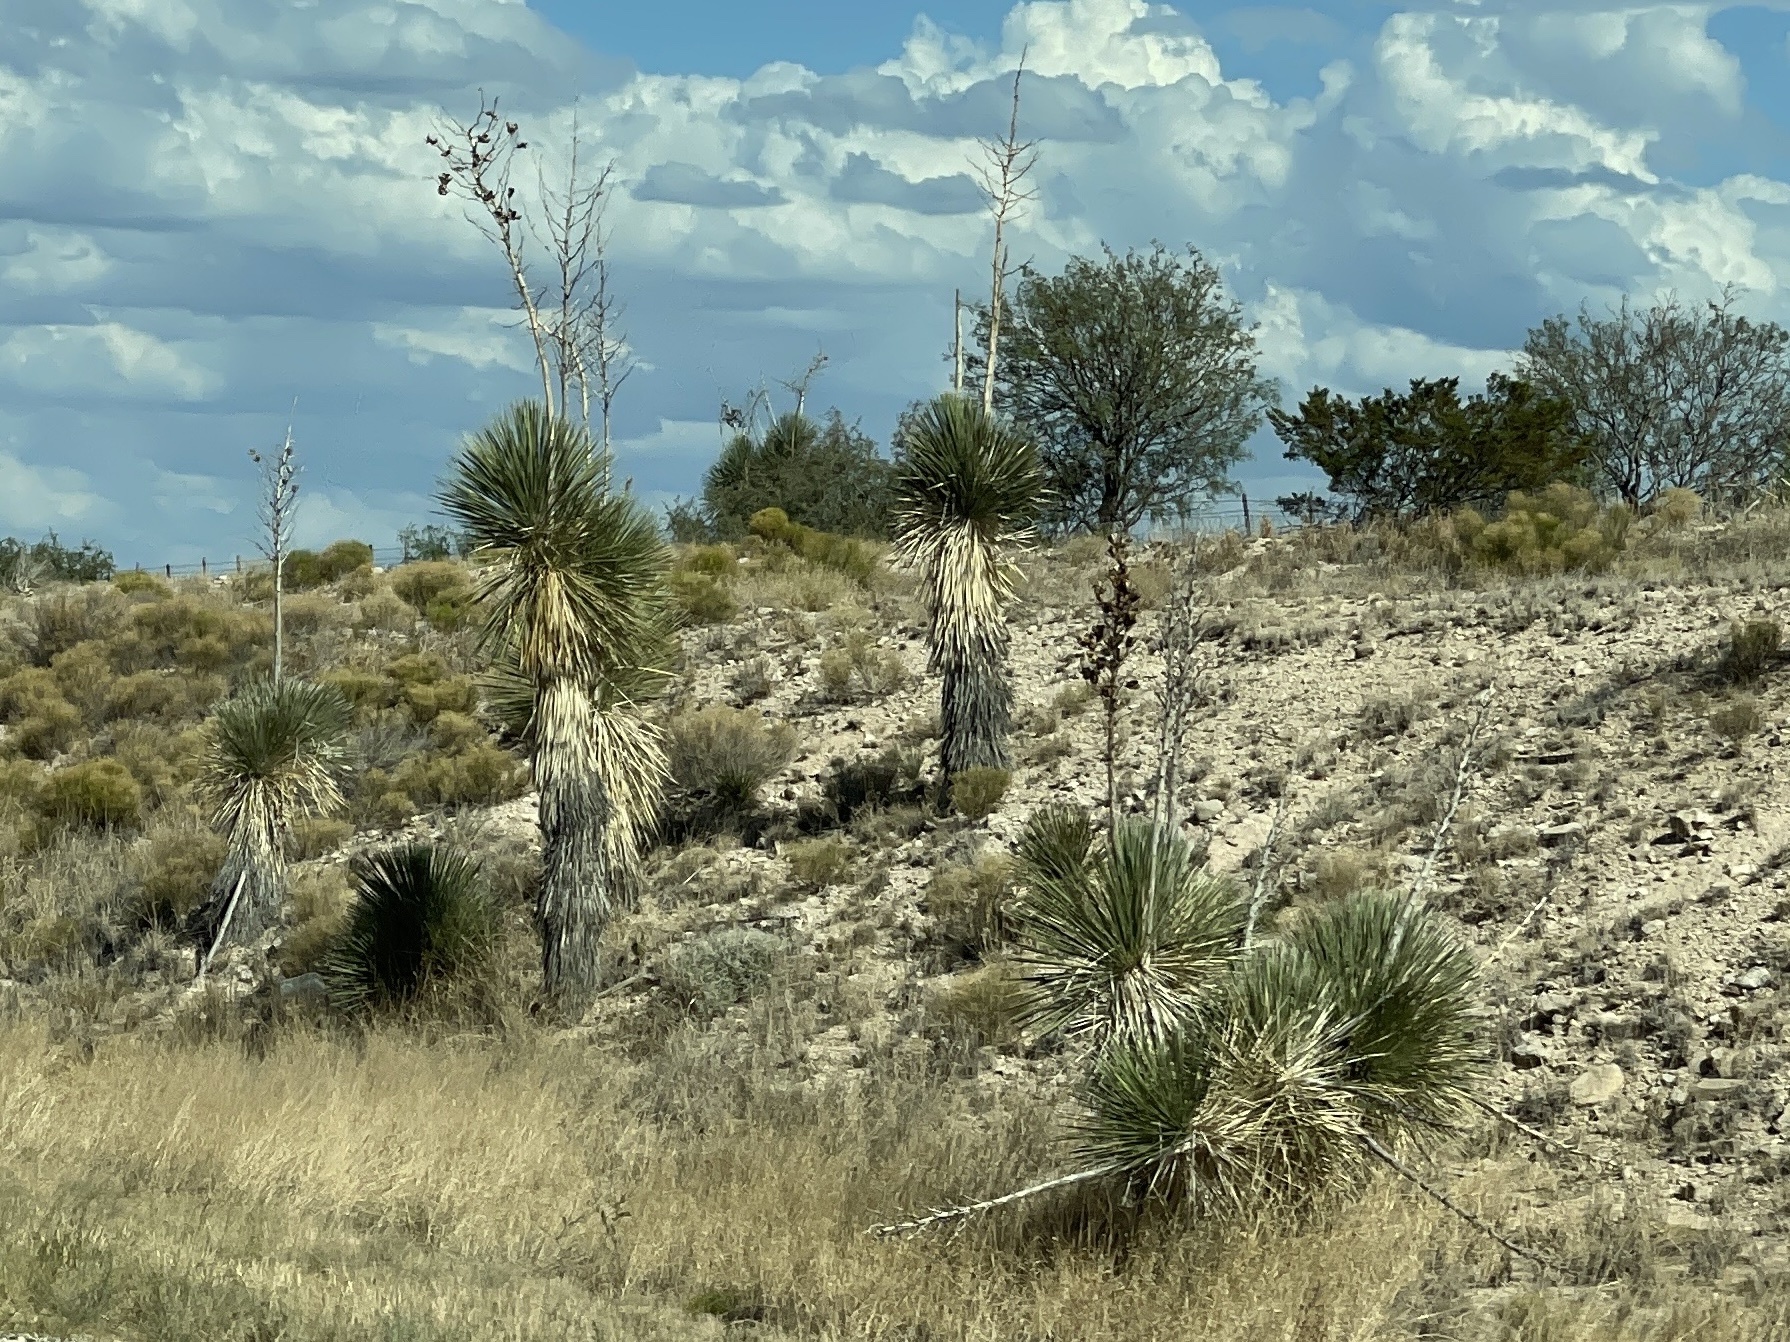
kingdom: Plantae
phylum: Tracheophyta
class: Liliopsida
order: Asparagales
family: Asparagaceae
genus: Yucca
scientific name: Yucca elata
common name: Palmella
